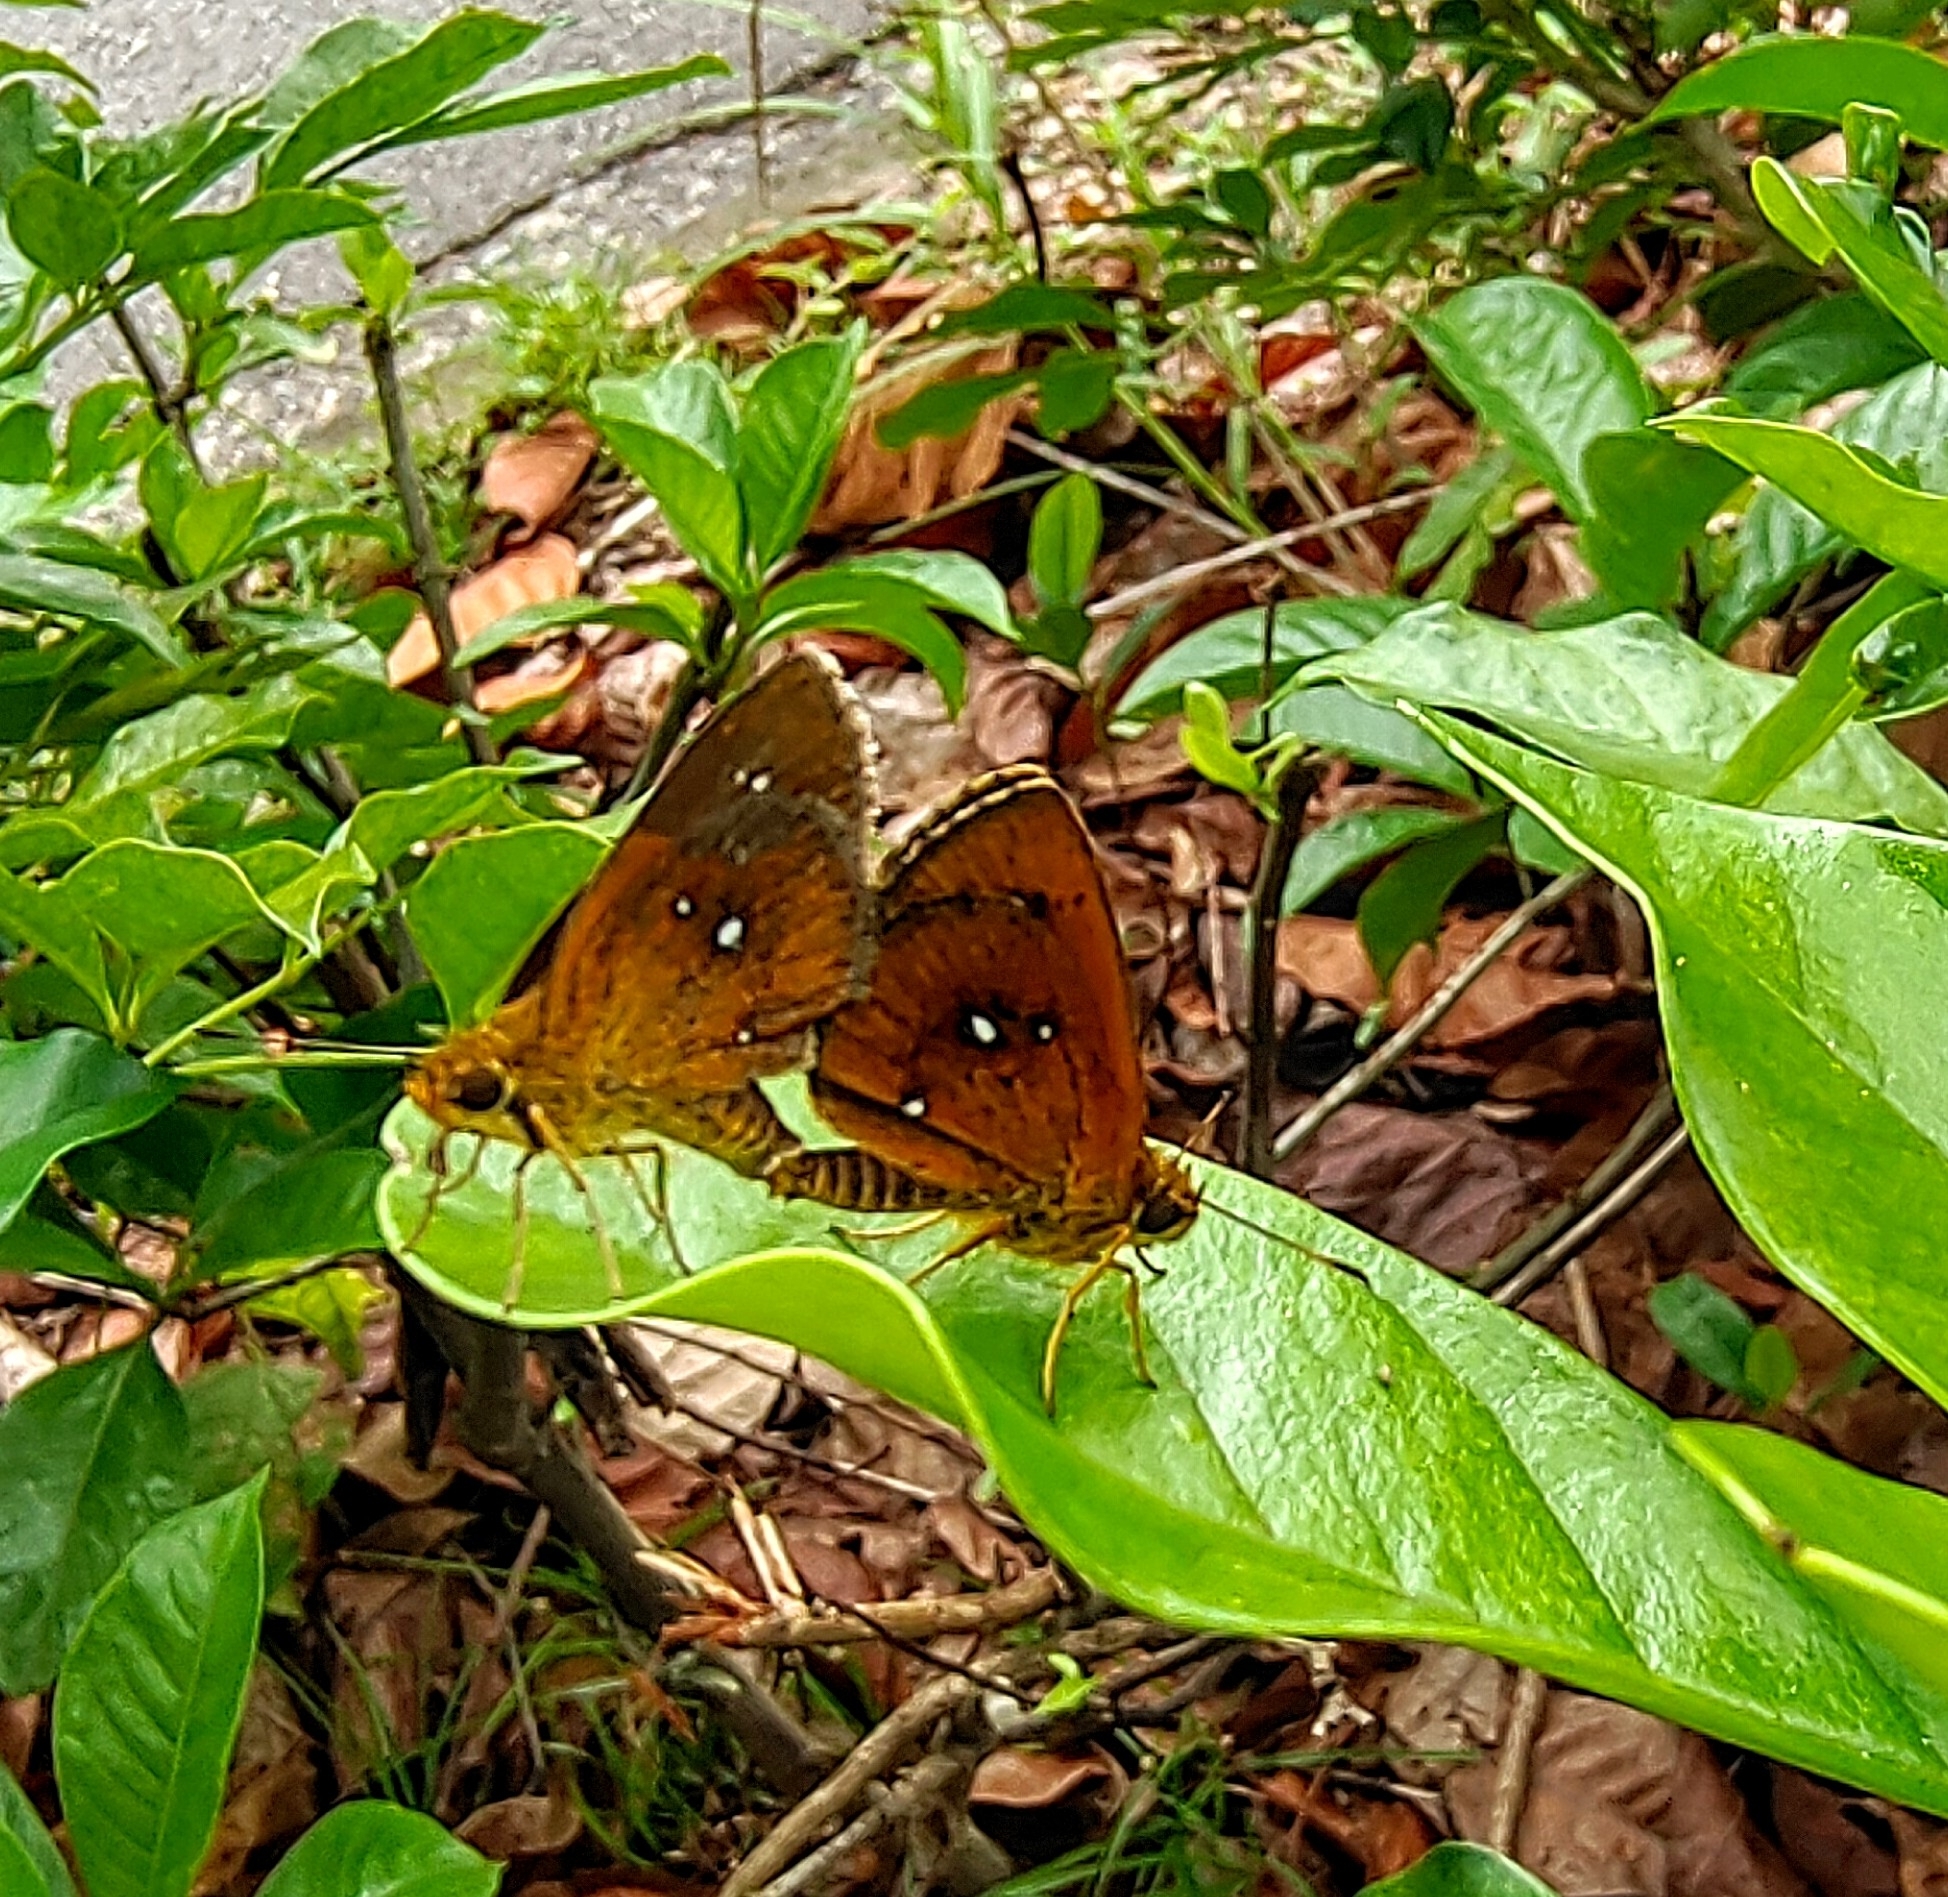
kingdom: Animalia
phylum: Arthropoda
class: Insecta
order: Lepidoptera
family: Hesperiidae
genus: Iambrix
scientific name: Iambrix salsala
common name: Chestnut bob
